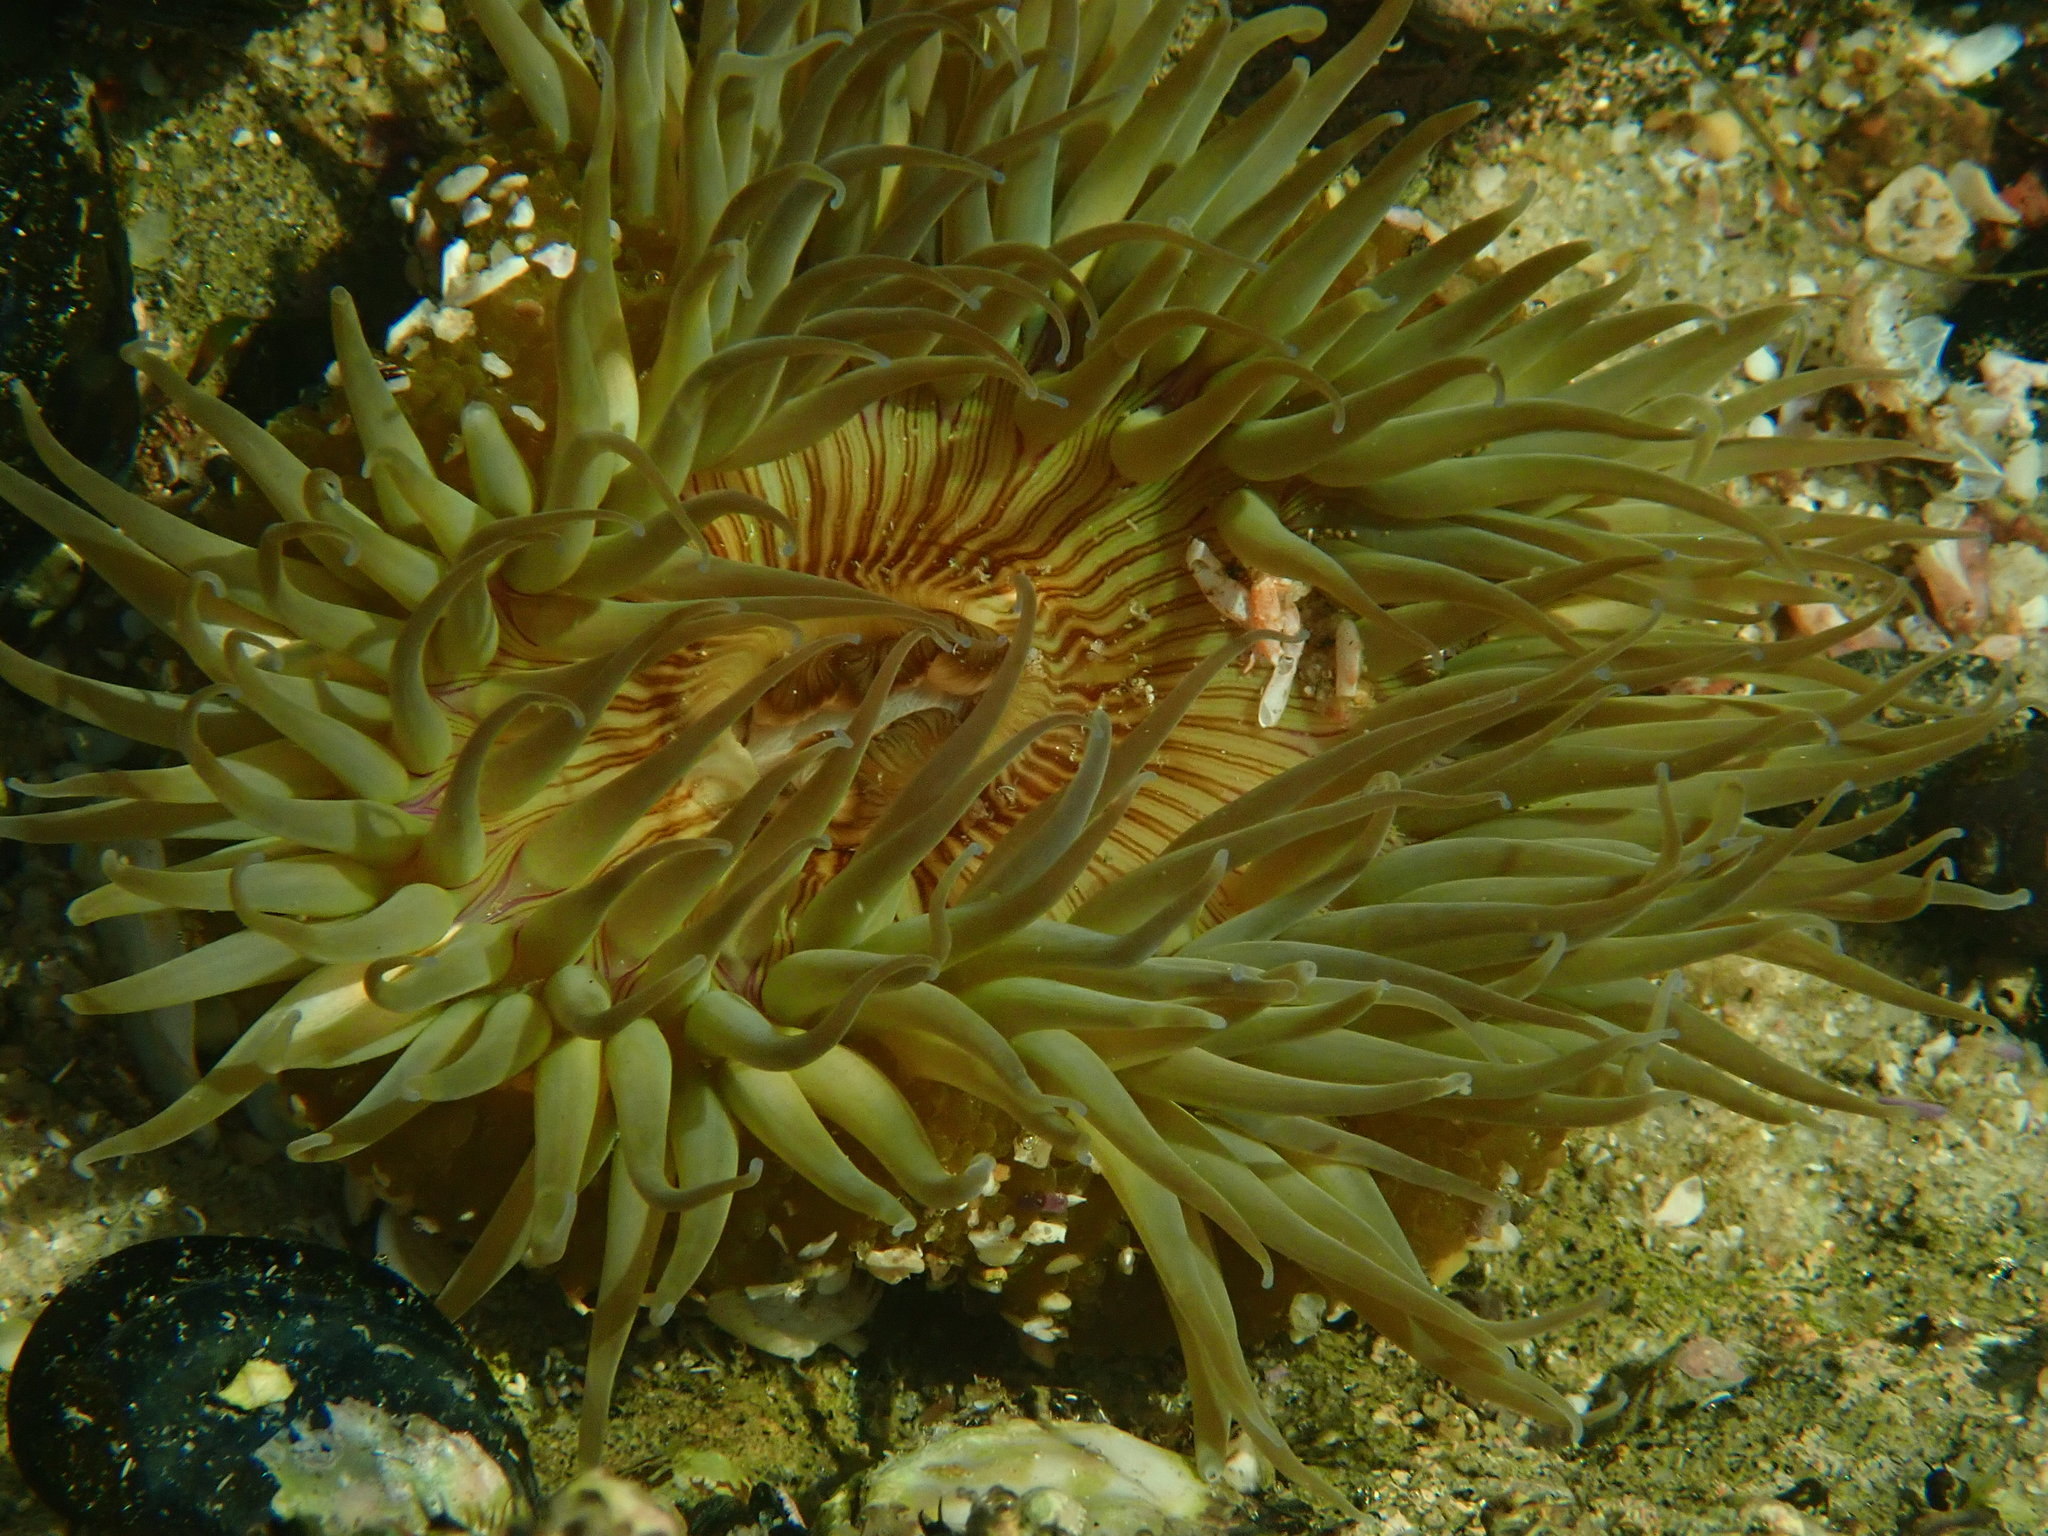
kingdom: Animalia
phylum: Cnidaria
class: Anthozoa
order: Actiniaria
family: Actiniidae
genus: Anthopleura
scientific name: Anthopleura sola
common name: Sun anemone
